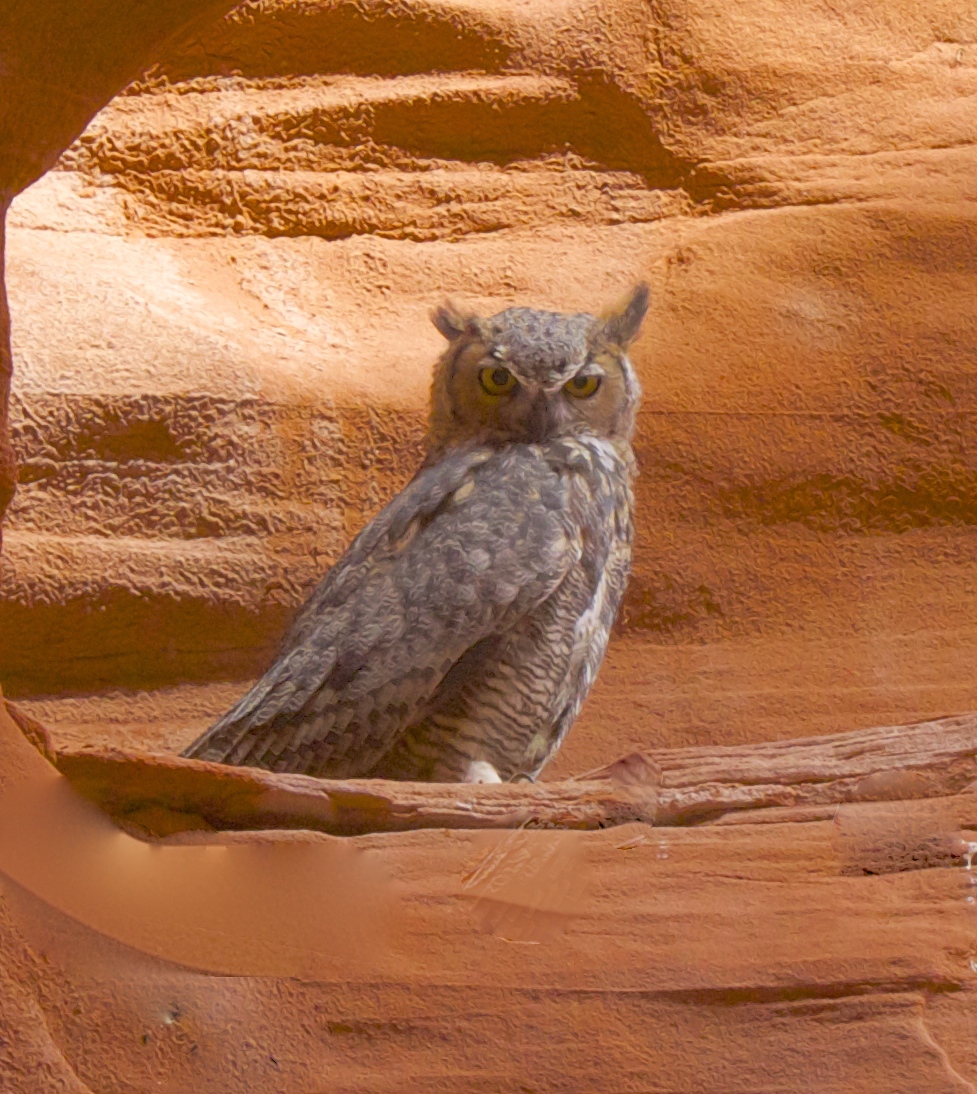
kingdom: Animalia
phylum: Chordata
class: Aves
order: Strigiformes
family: Strigidae
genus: Bubo
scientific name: Bubo virginianus
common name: Great horned owl
